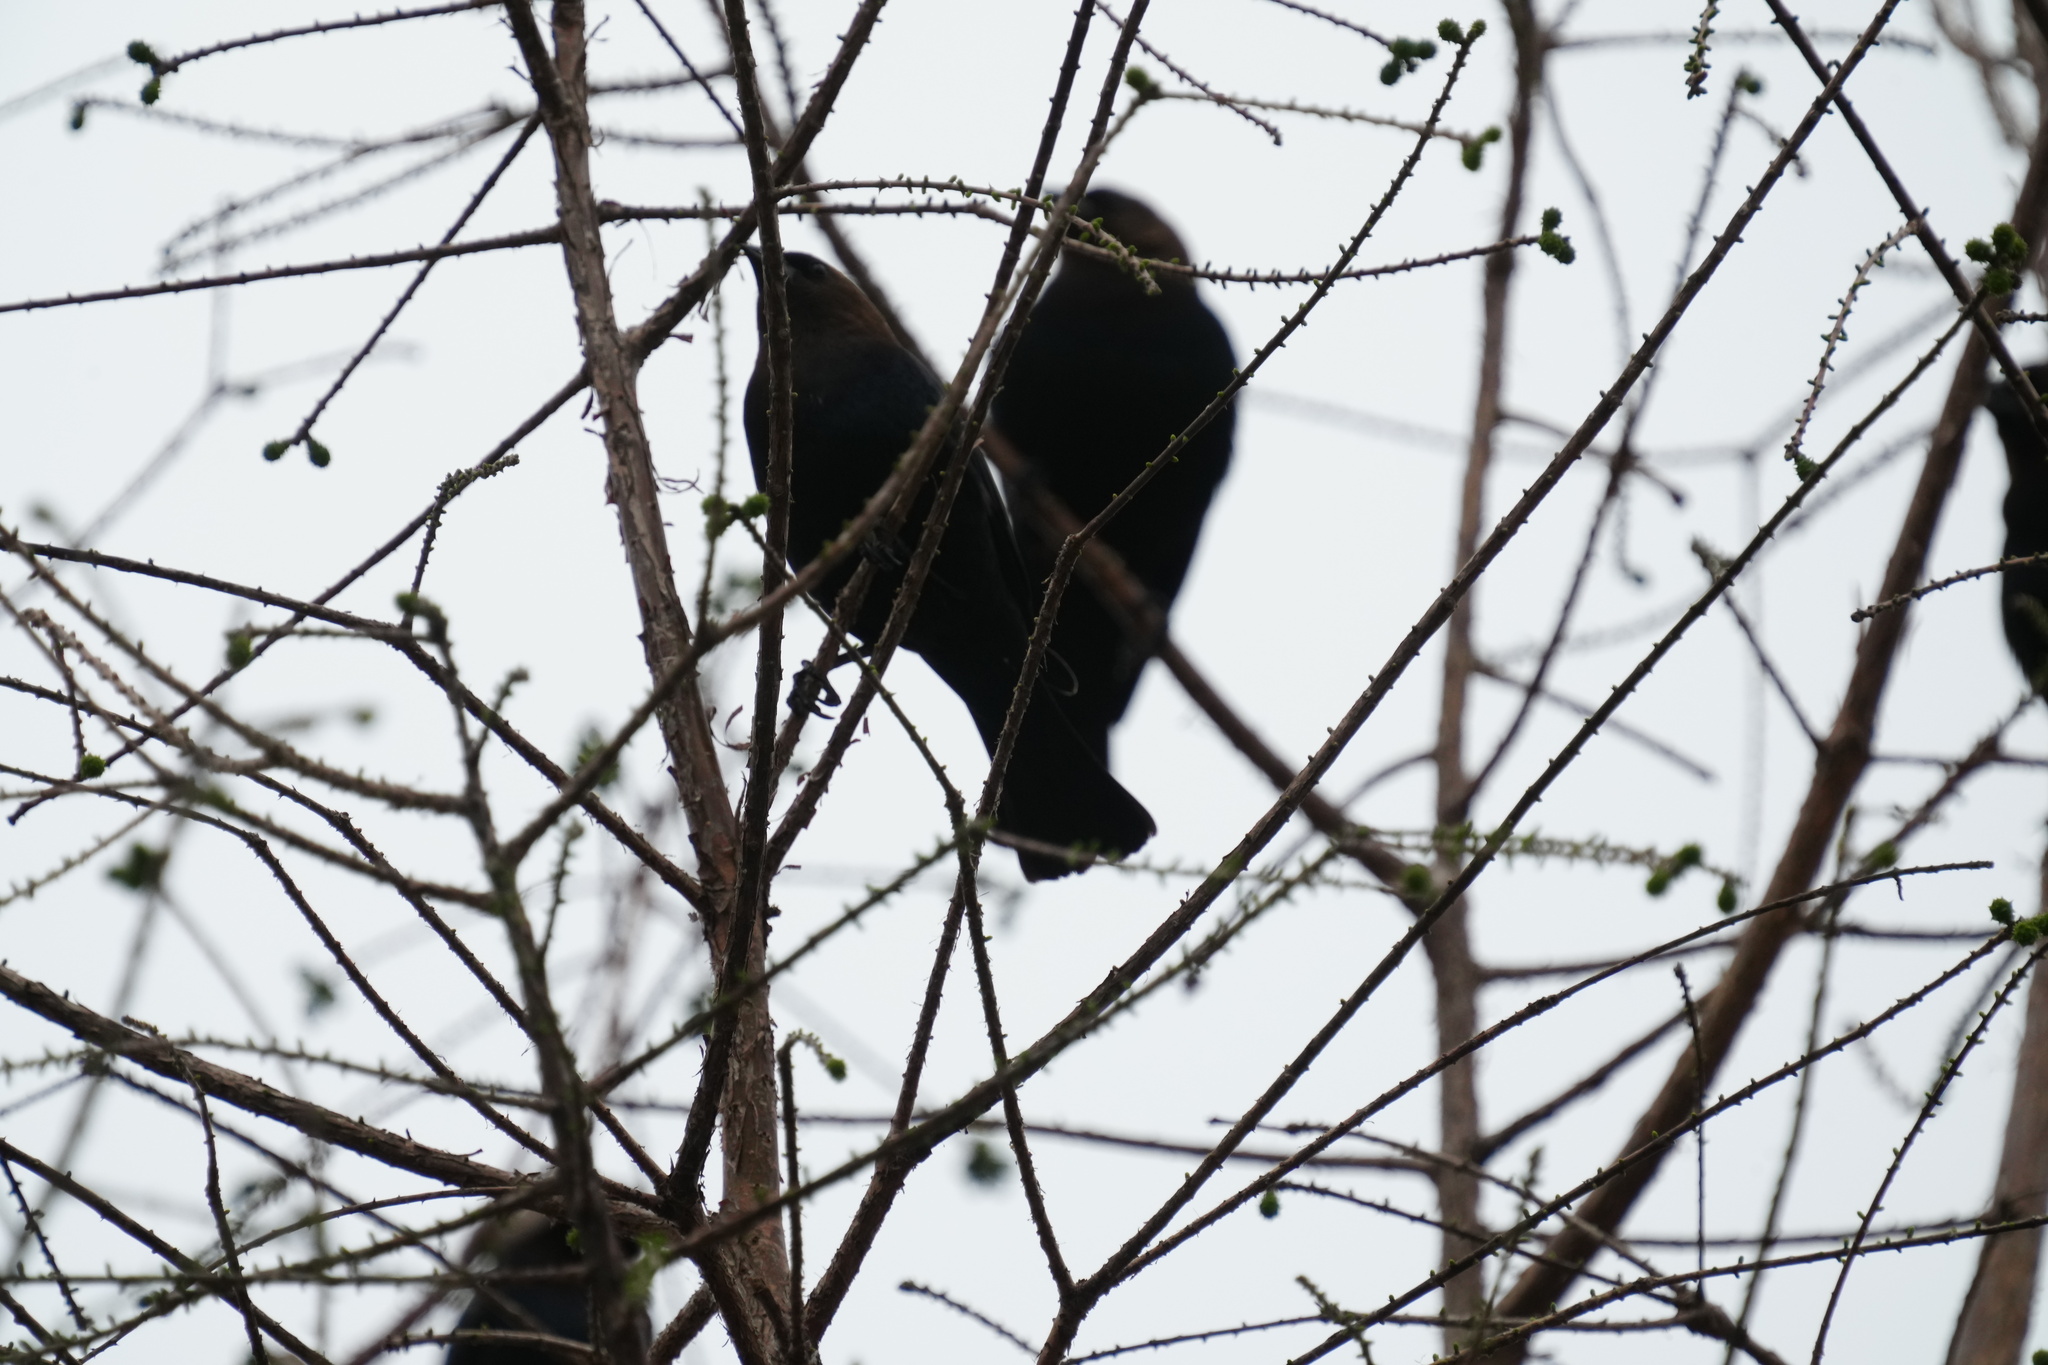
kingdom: Animalia
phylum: Chordata
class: Aves
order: Passeriformes
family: Icteridae
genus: Molothrus
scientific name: Molothrus ater
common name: Brown-headed cowbird
